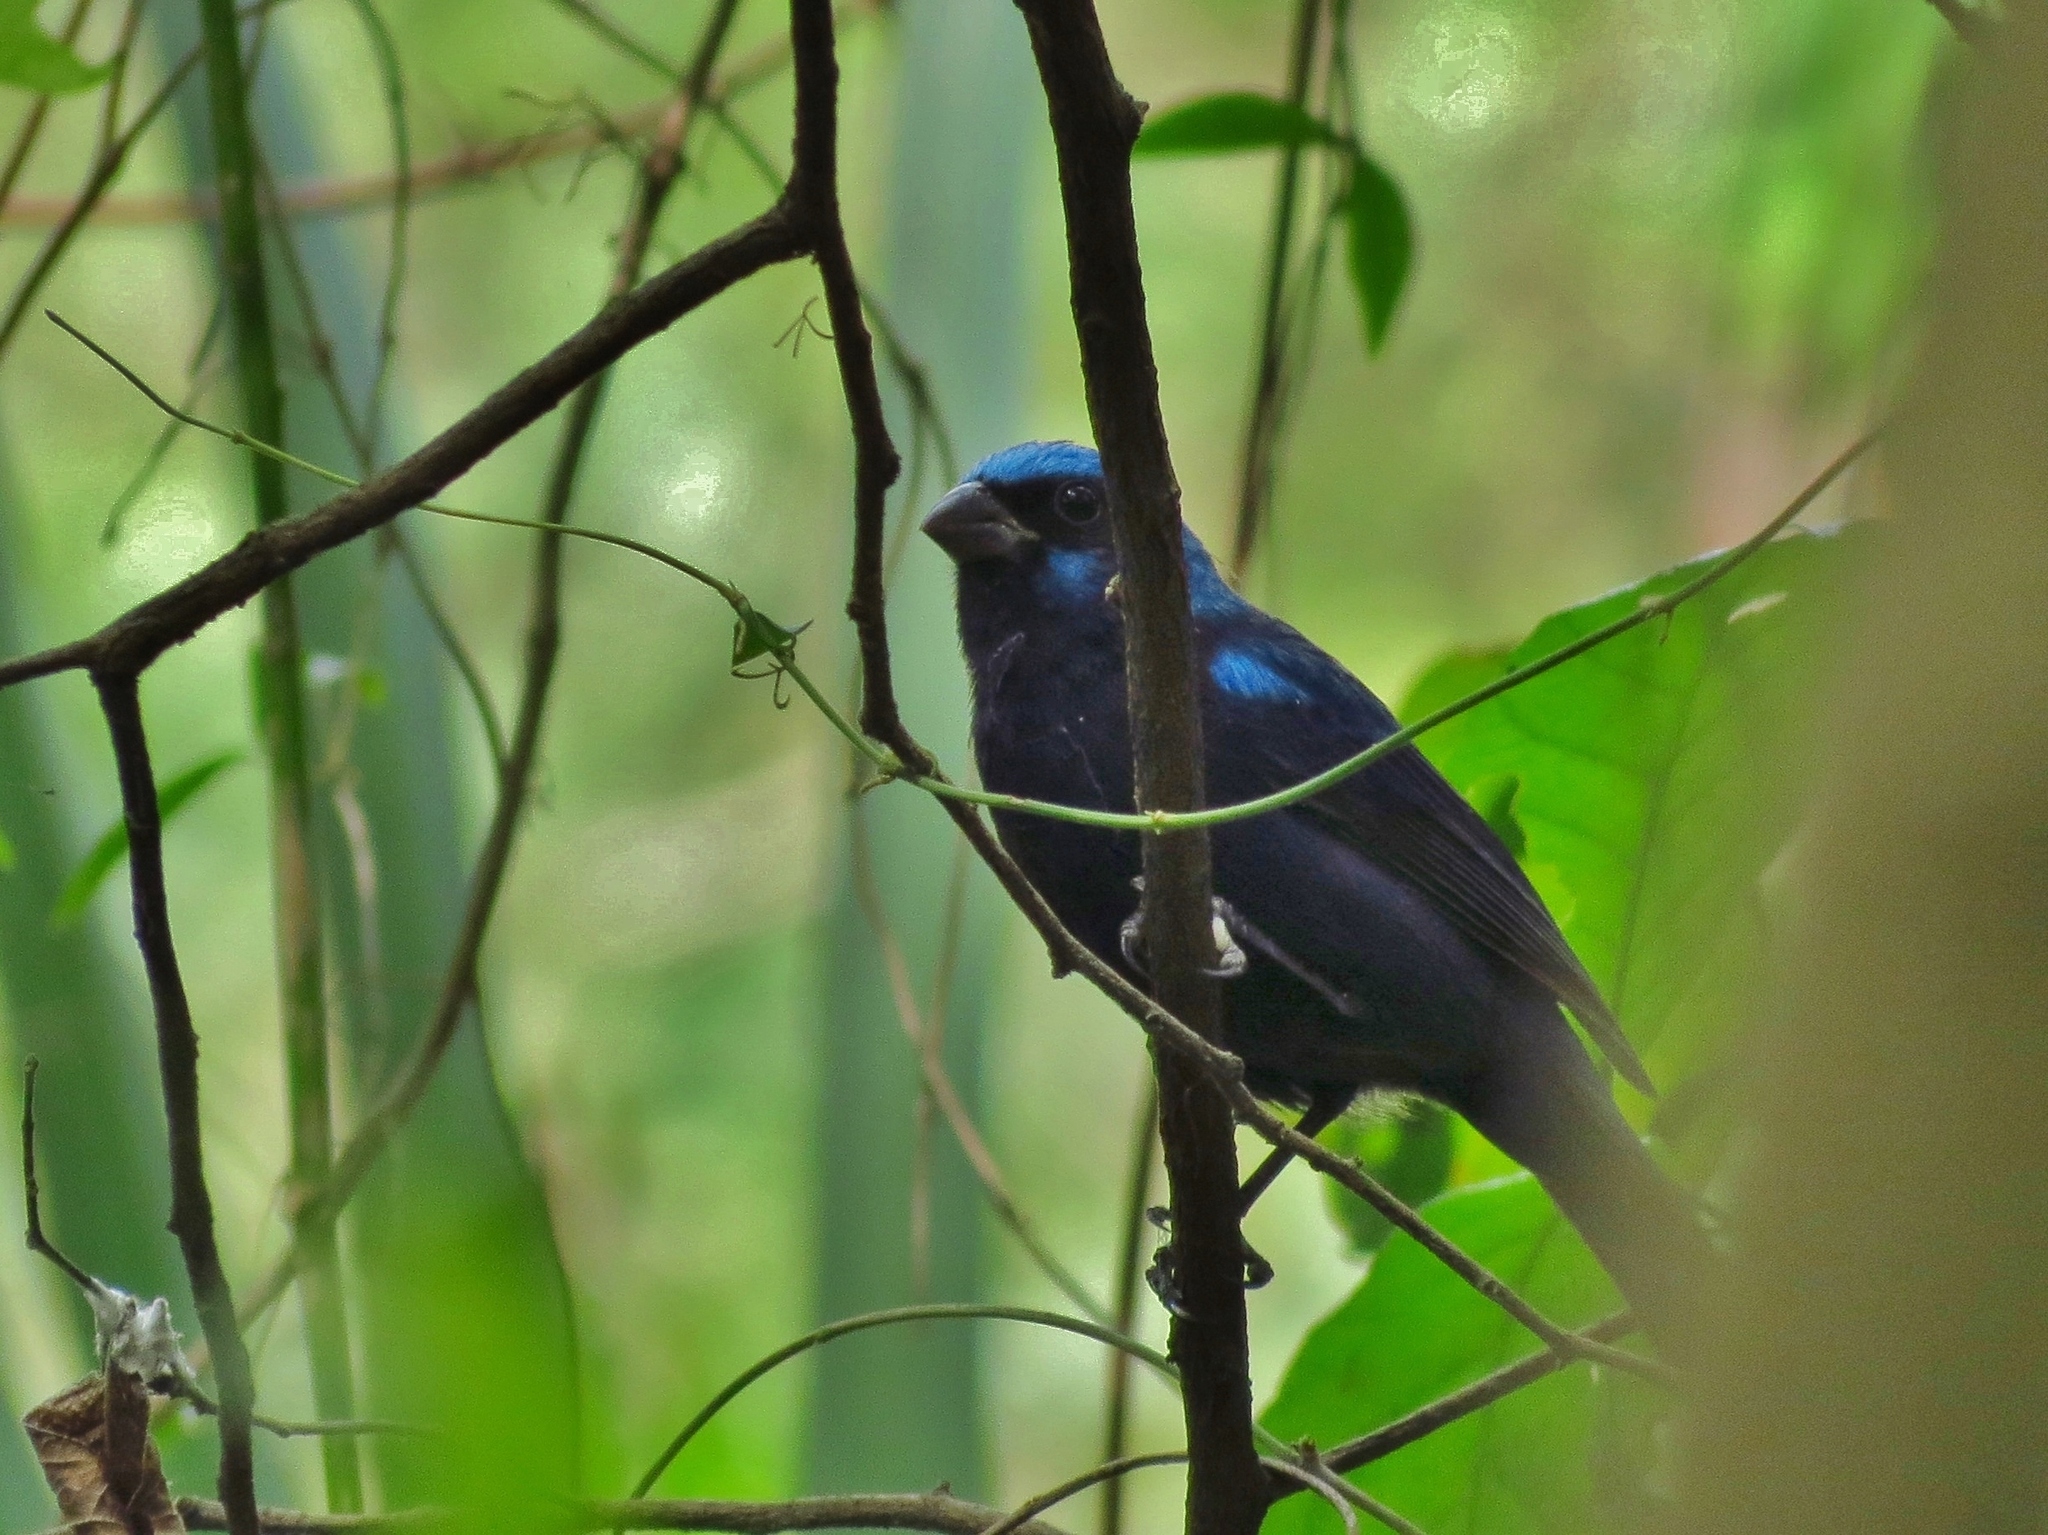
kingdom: Animalia
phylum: Chordata
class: Aves
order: Passeriformes
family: Cardinalidae
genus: Cyanocompsa
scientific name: Cyanocompsa parellina
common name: Blue bunting
